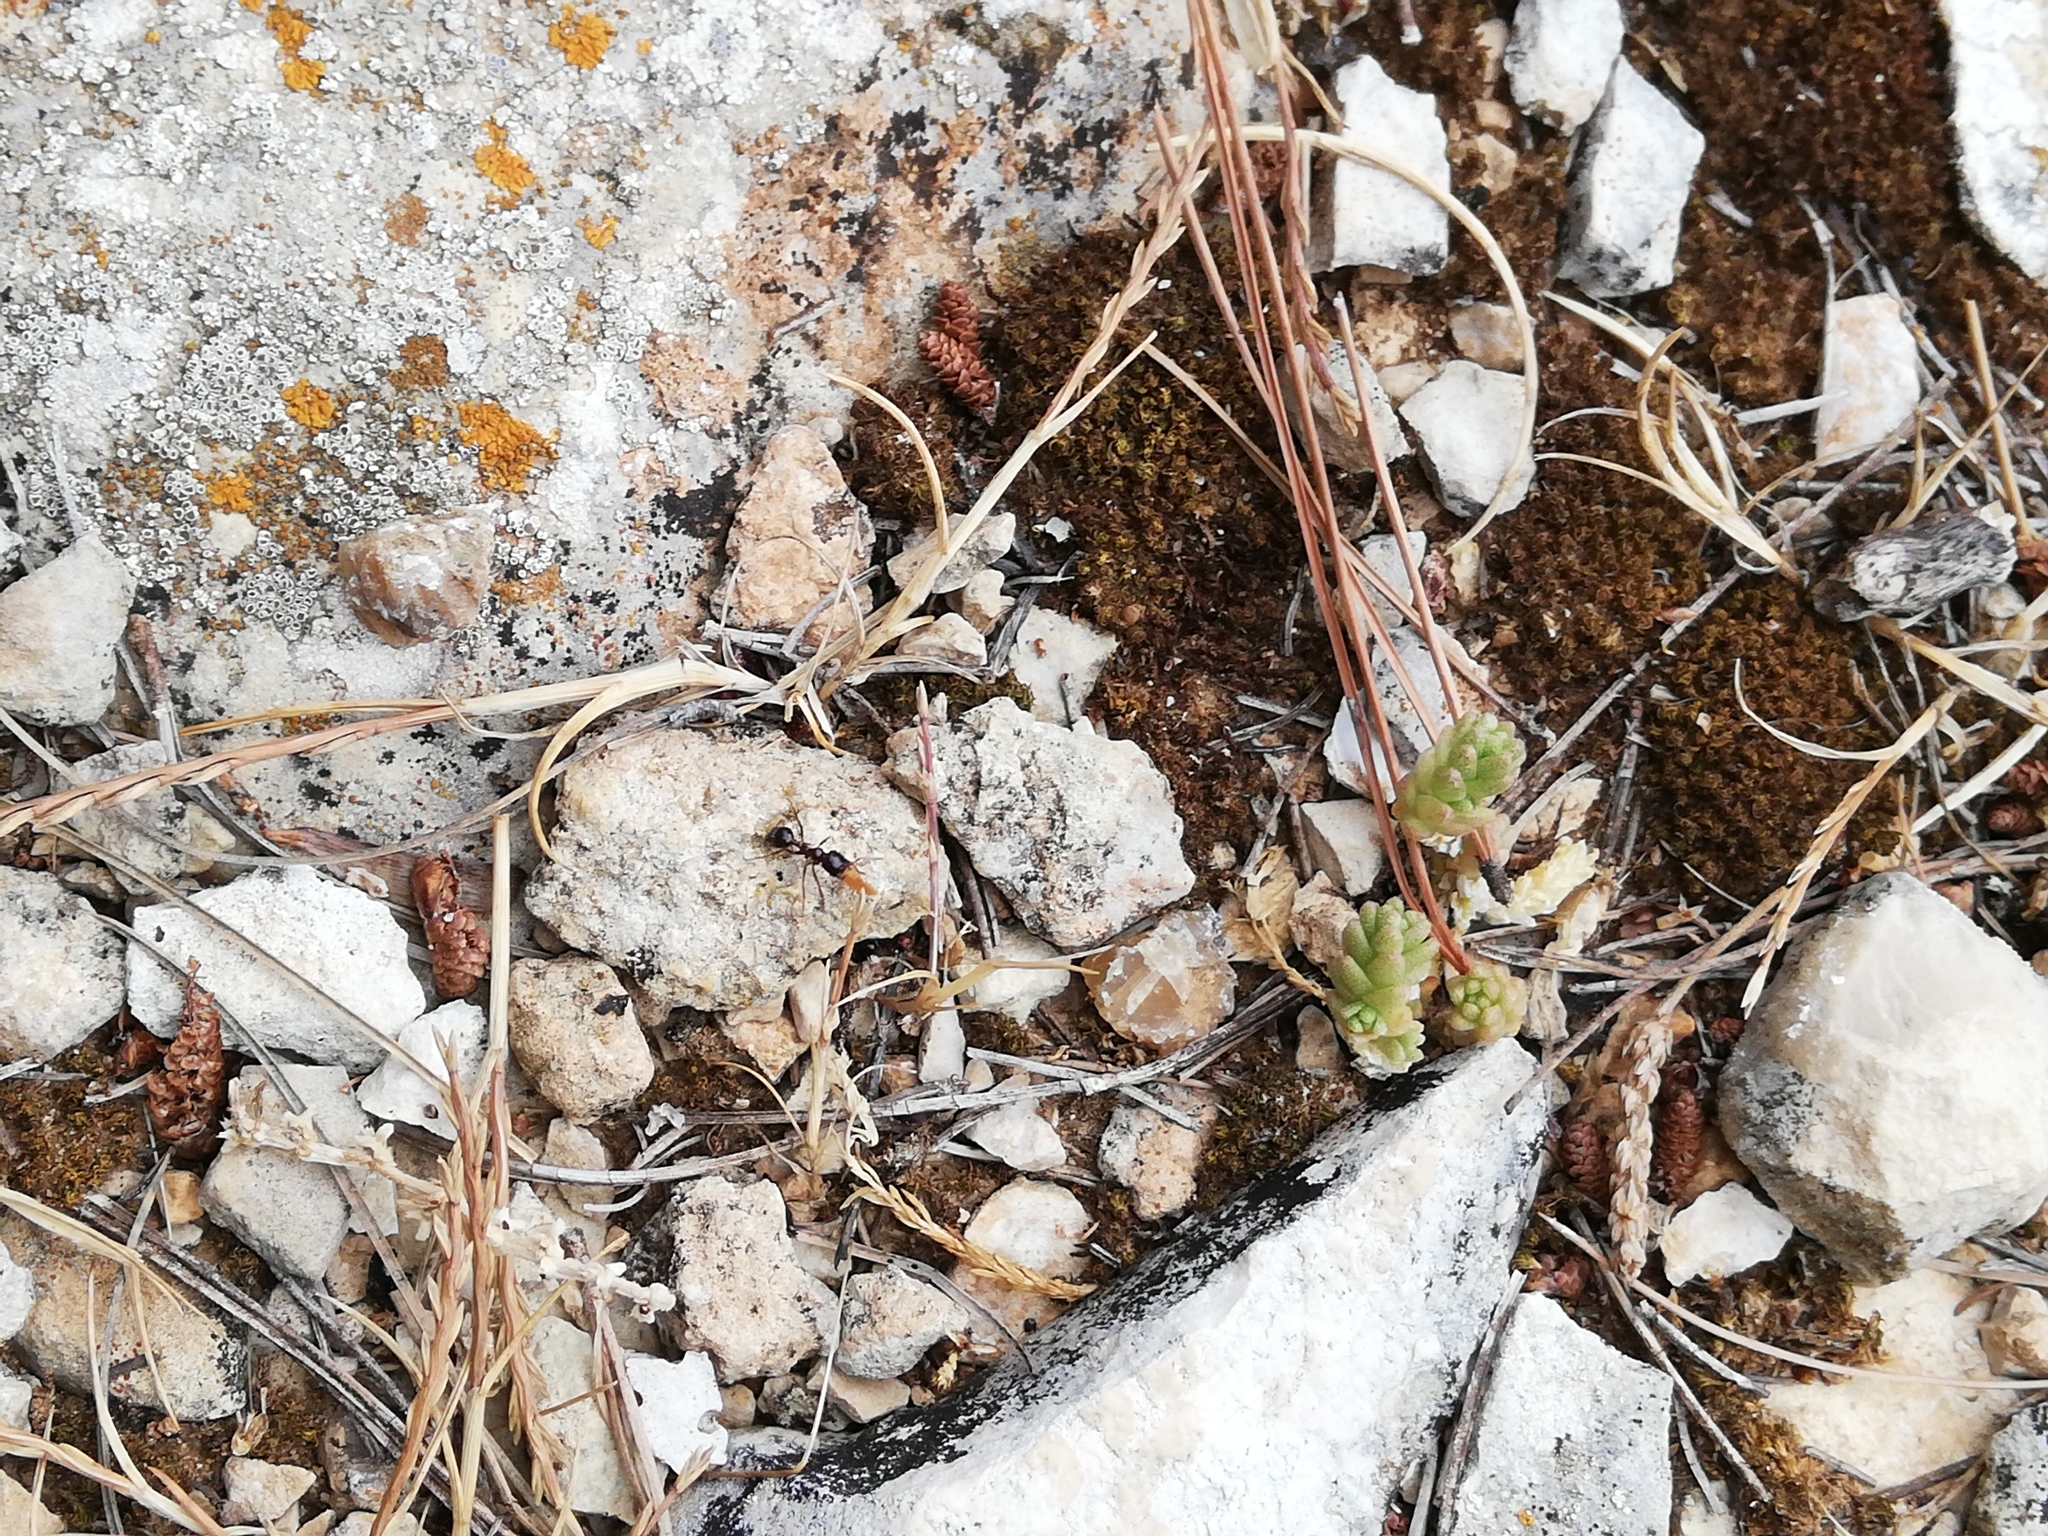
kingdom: Plantae
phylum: Tracheophyta
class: Magnoliopsida
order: Saxifragales
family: Crassulaceae
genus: Sedum
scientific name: Sedum acre
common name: Biting stonecrop
